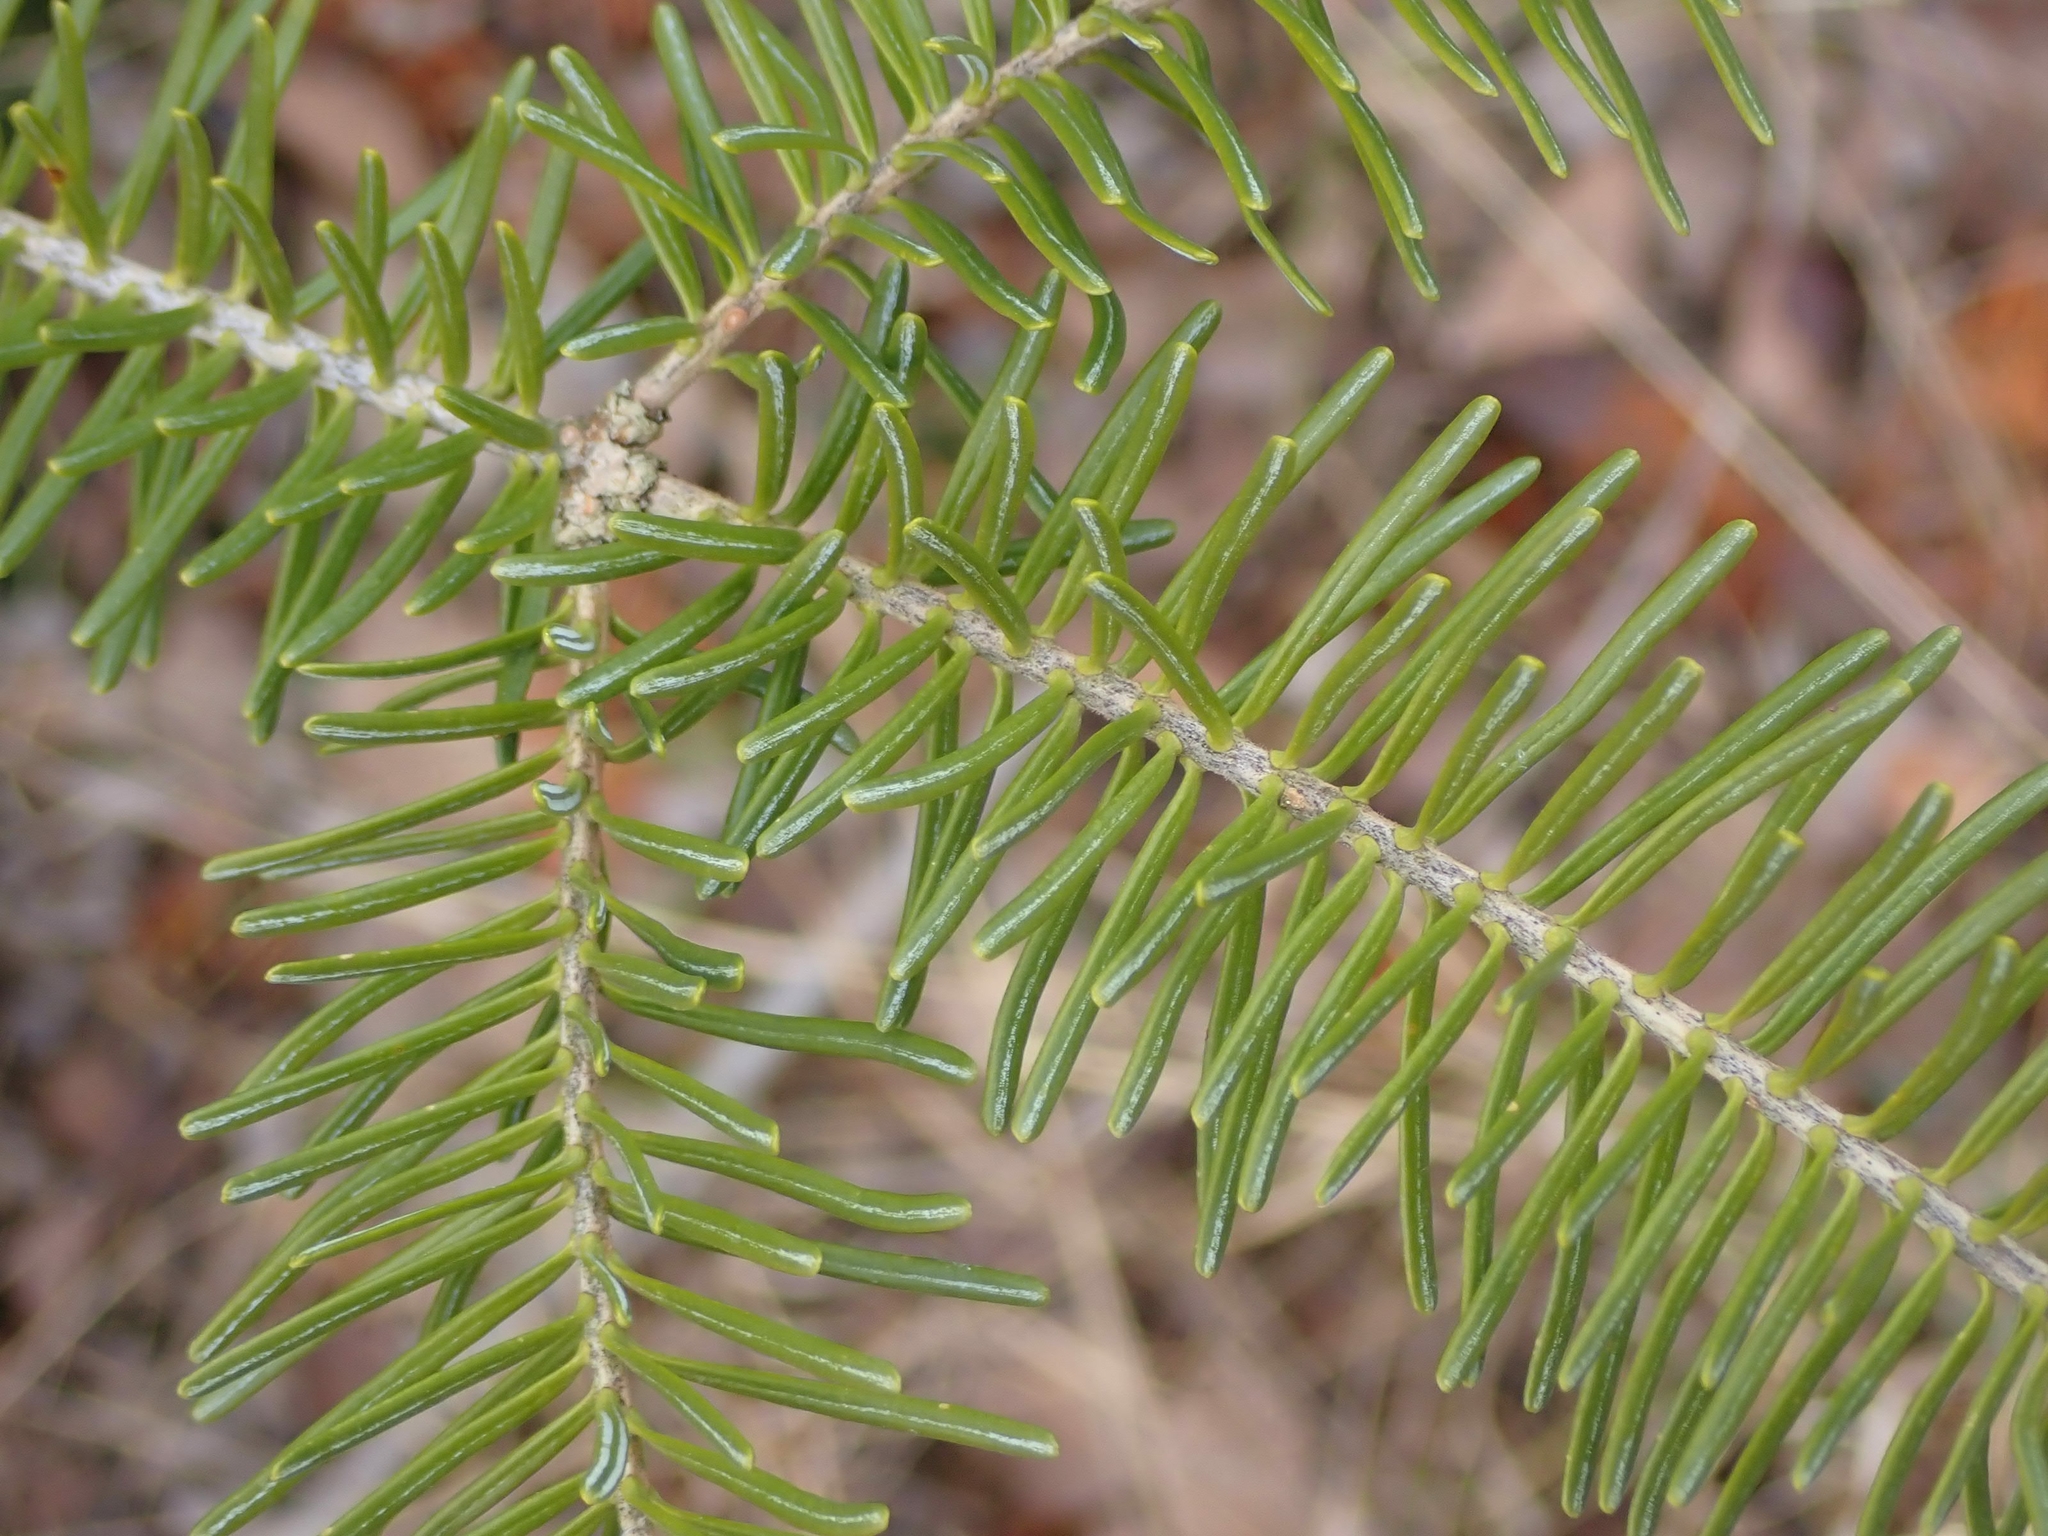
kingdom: Plantae
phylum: Tracheophyta
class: Pinopsida
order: Pinales
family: Pinaceae
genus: Abies
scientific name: Abies balsamea
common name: Balsam fir
